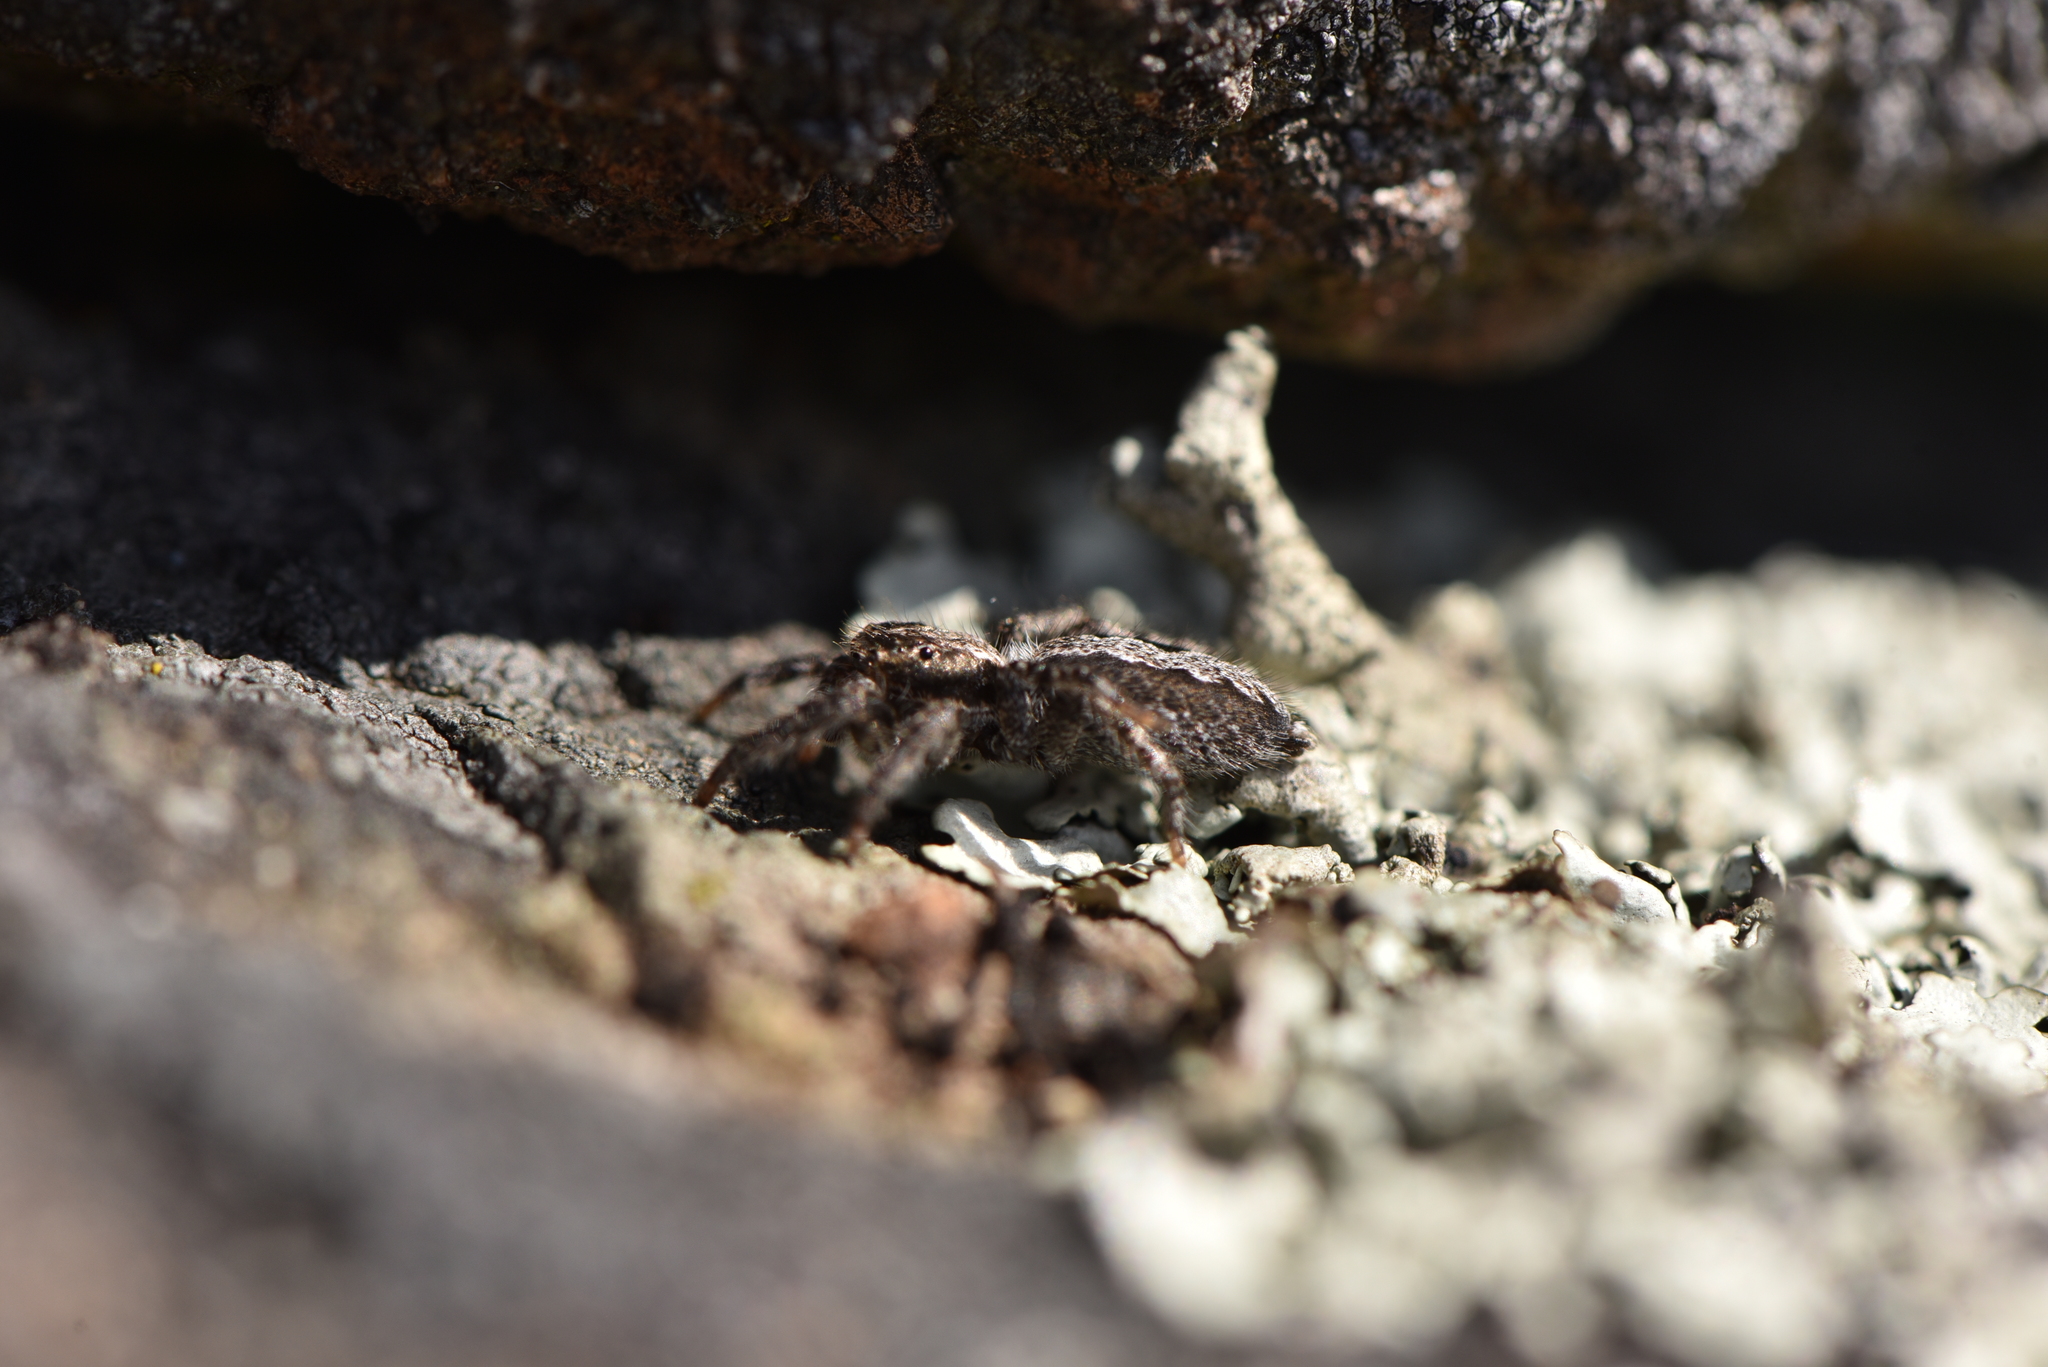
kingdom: Animalia
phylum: Arthropoda
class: Arachnida
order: Araneae
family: Salticidae
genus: Platycryptus
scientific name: Platycryptus californicus
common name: Jumping spiders
